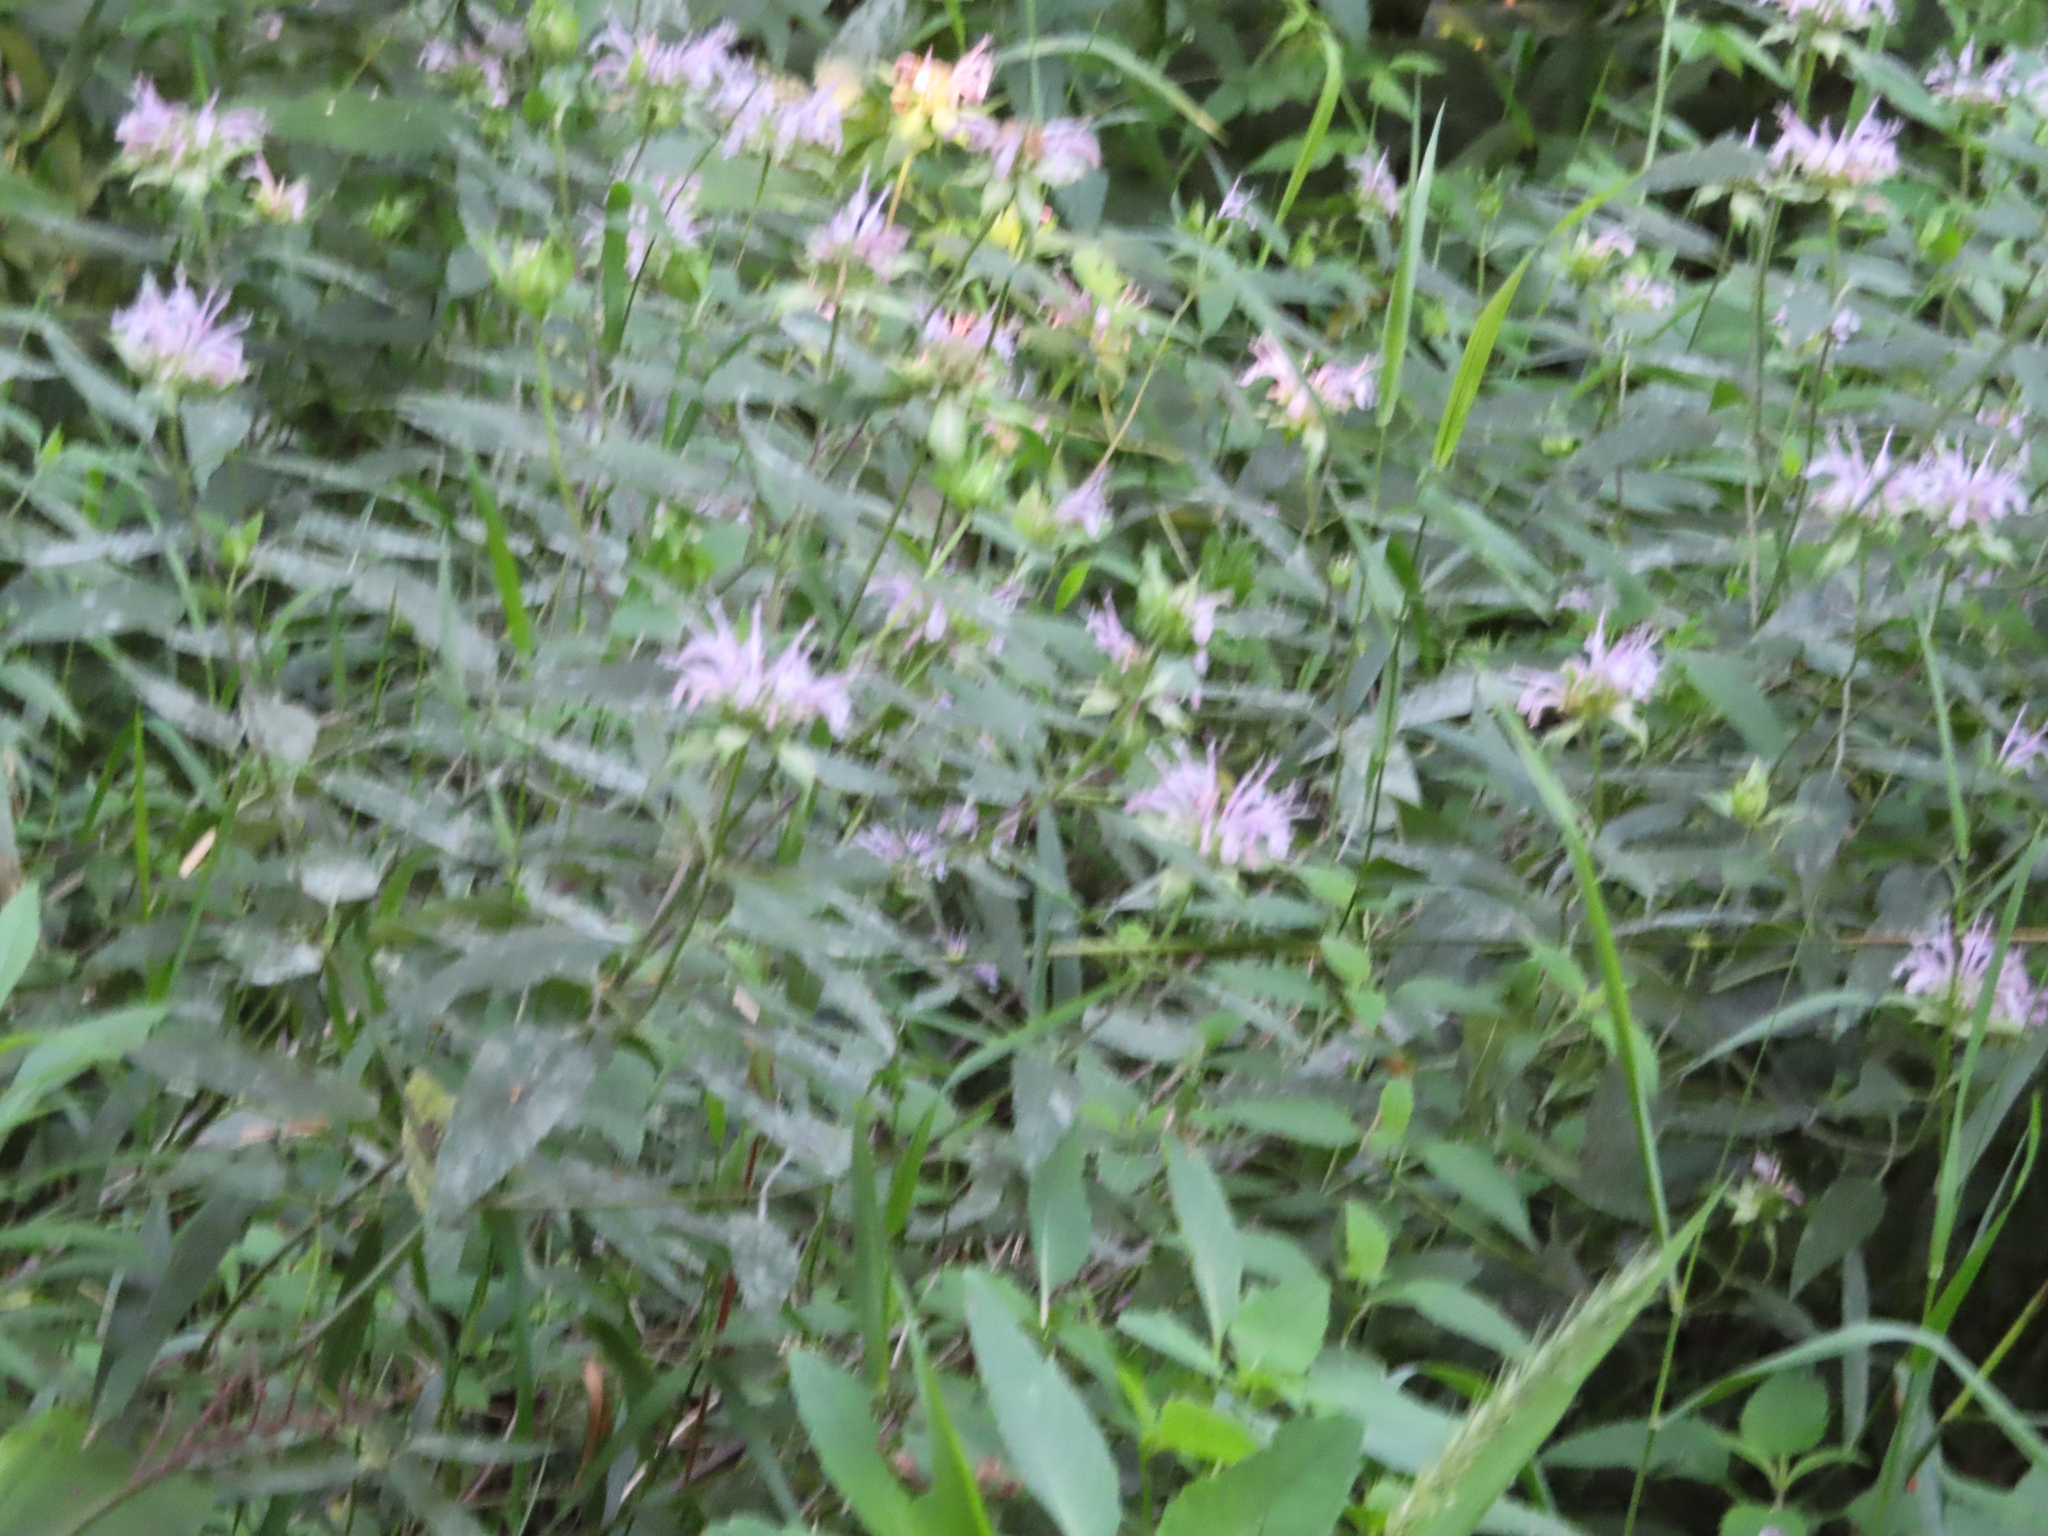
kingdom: Plantae
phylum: Tracheophyta
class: Magnoliopsida
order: Lamiales
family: Lamiaceae
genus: Monarda
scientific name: Monarda fistulosa
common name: Purple beebalm
